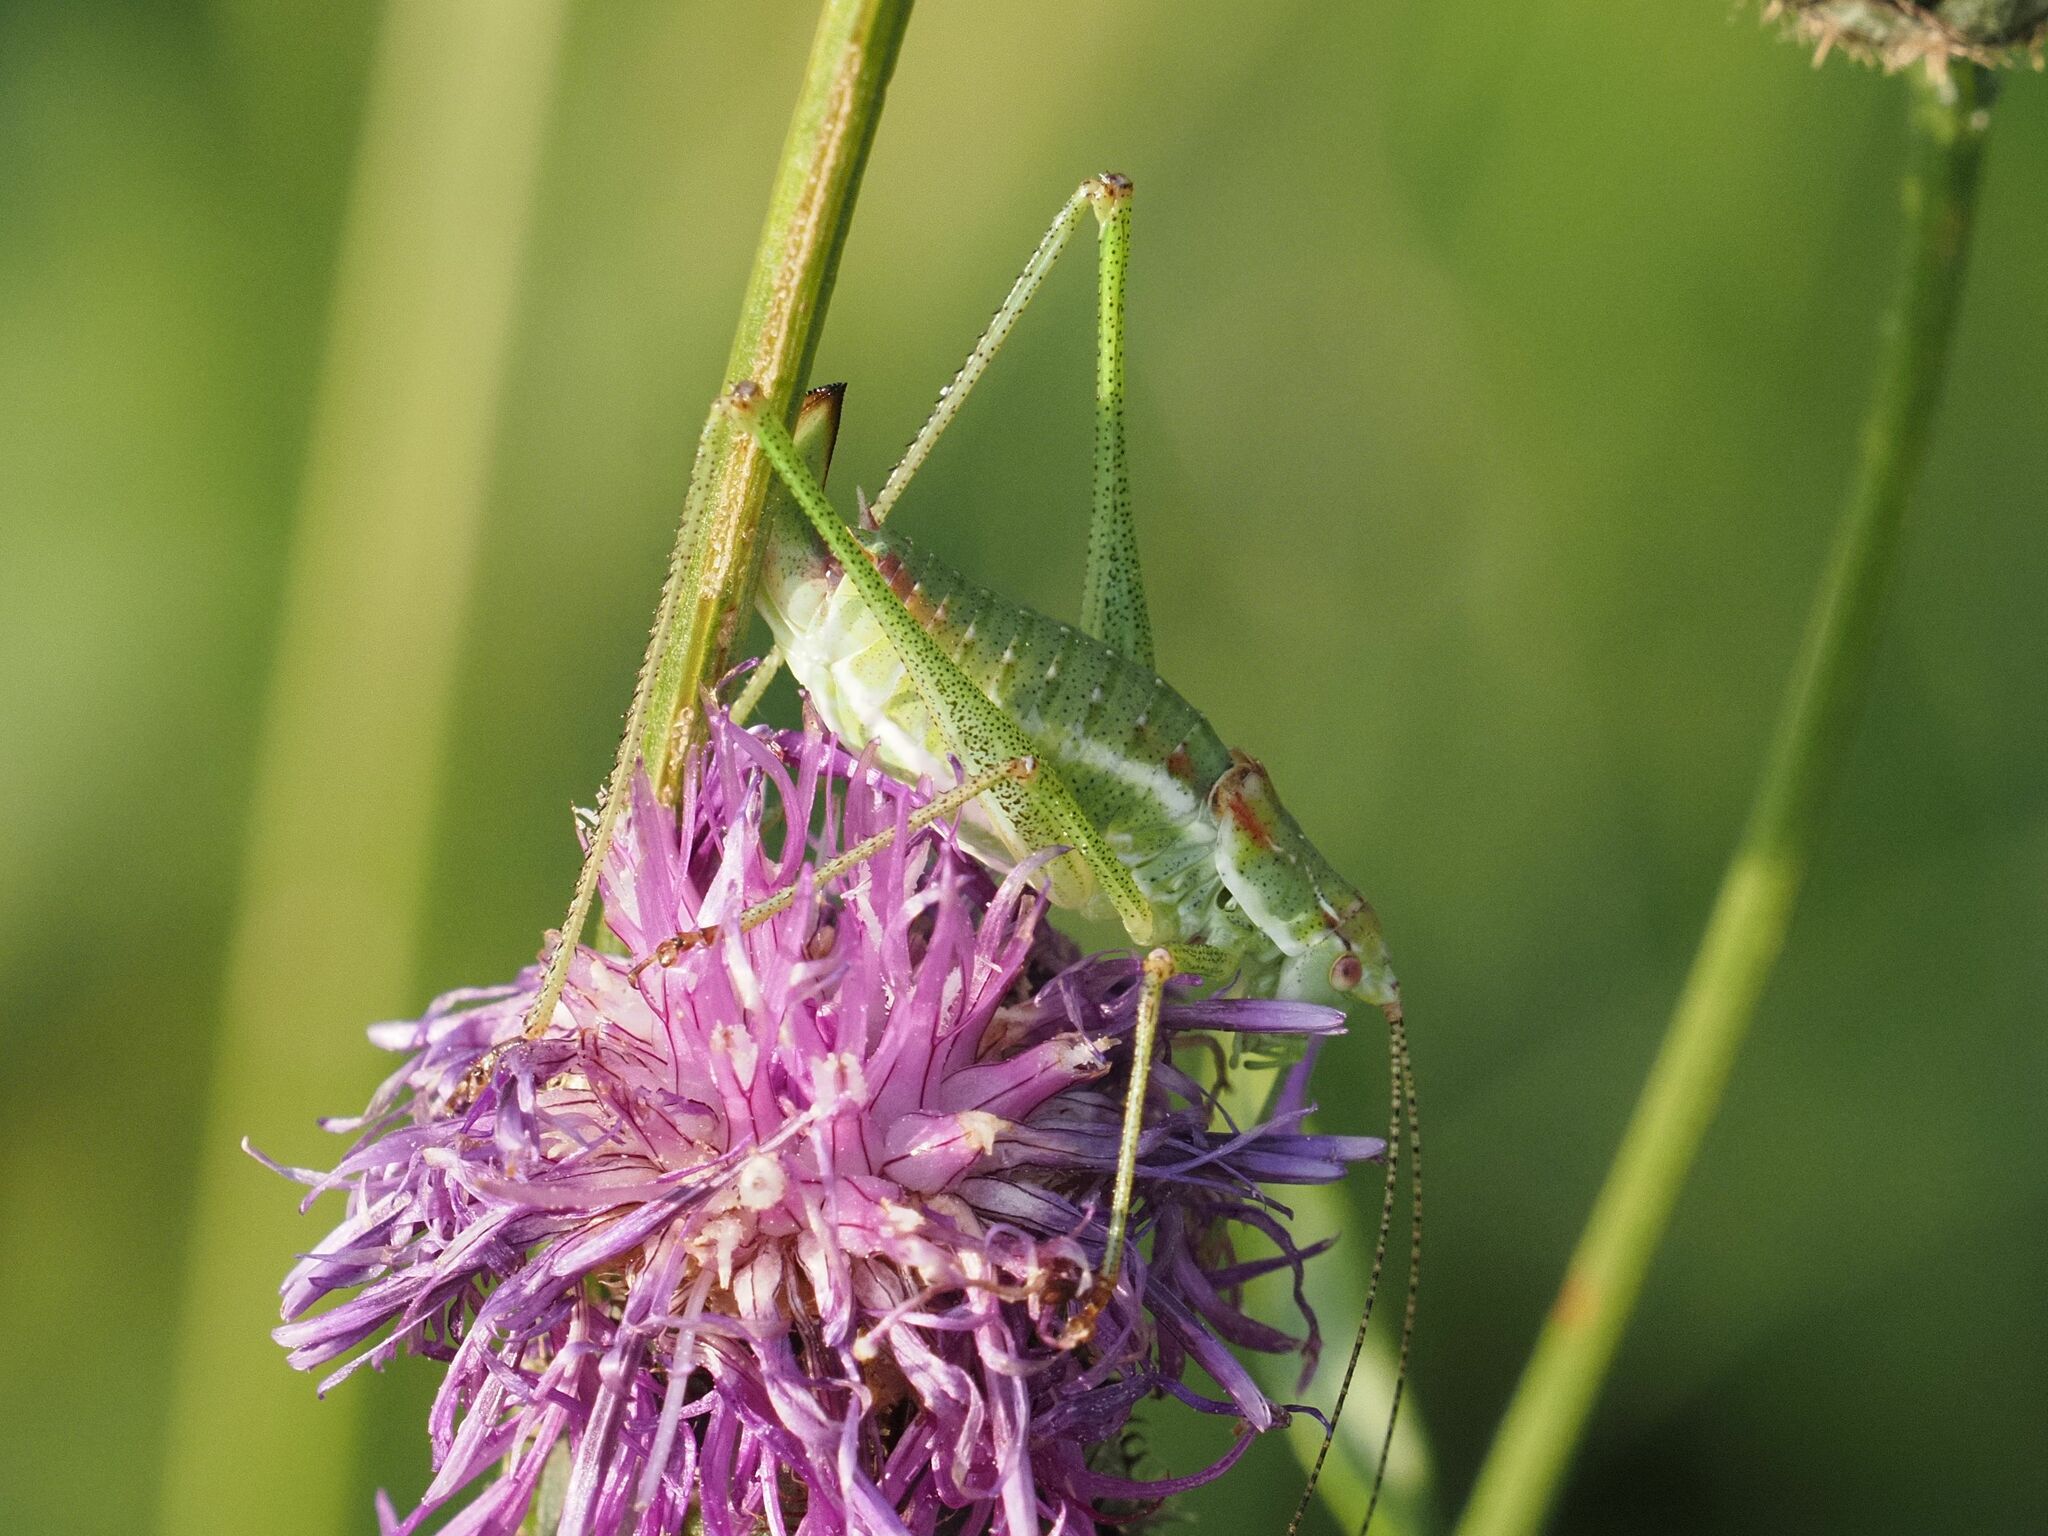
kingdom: Animalia
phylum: Arthropoda
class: Insecta
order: Orthoptera
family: Tettigoniidae
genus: Leptophyes
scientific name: Leptophyes albovittata
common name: Striped bush-cricket
